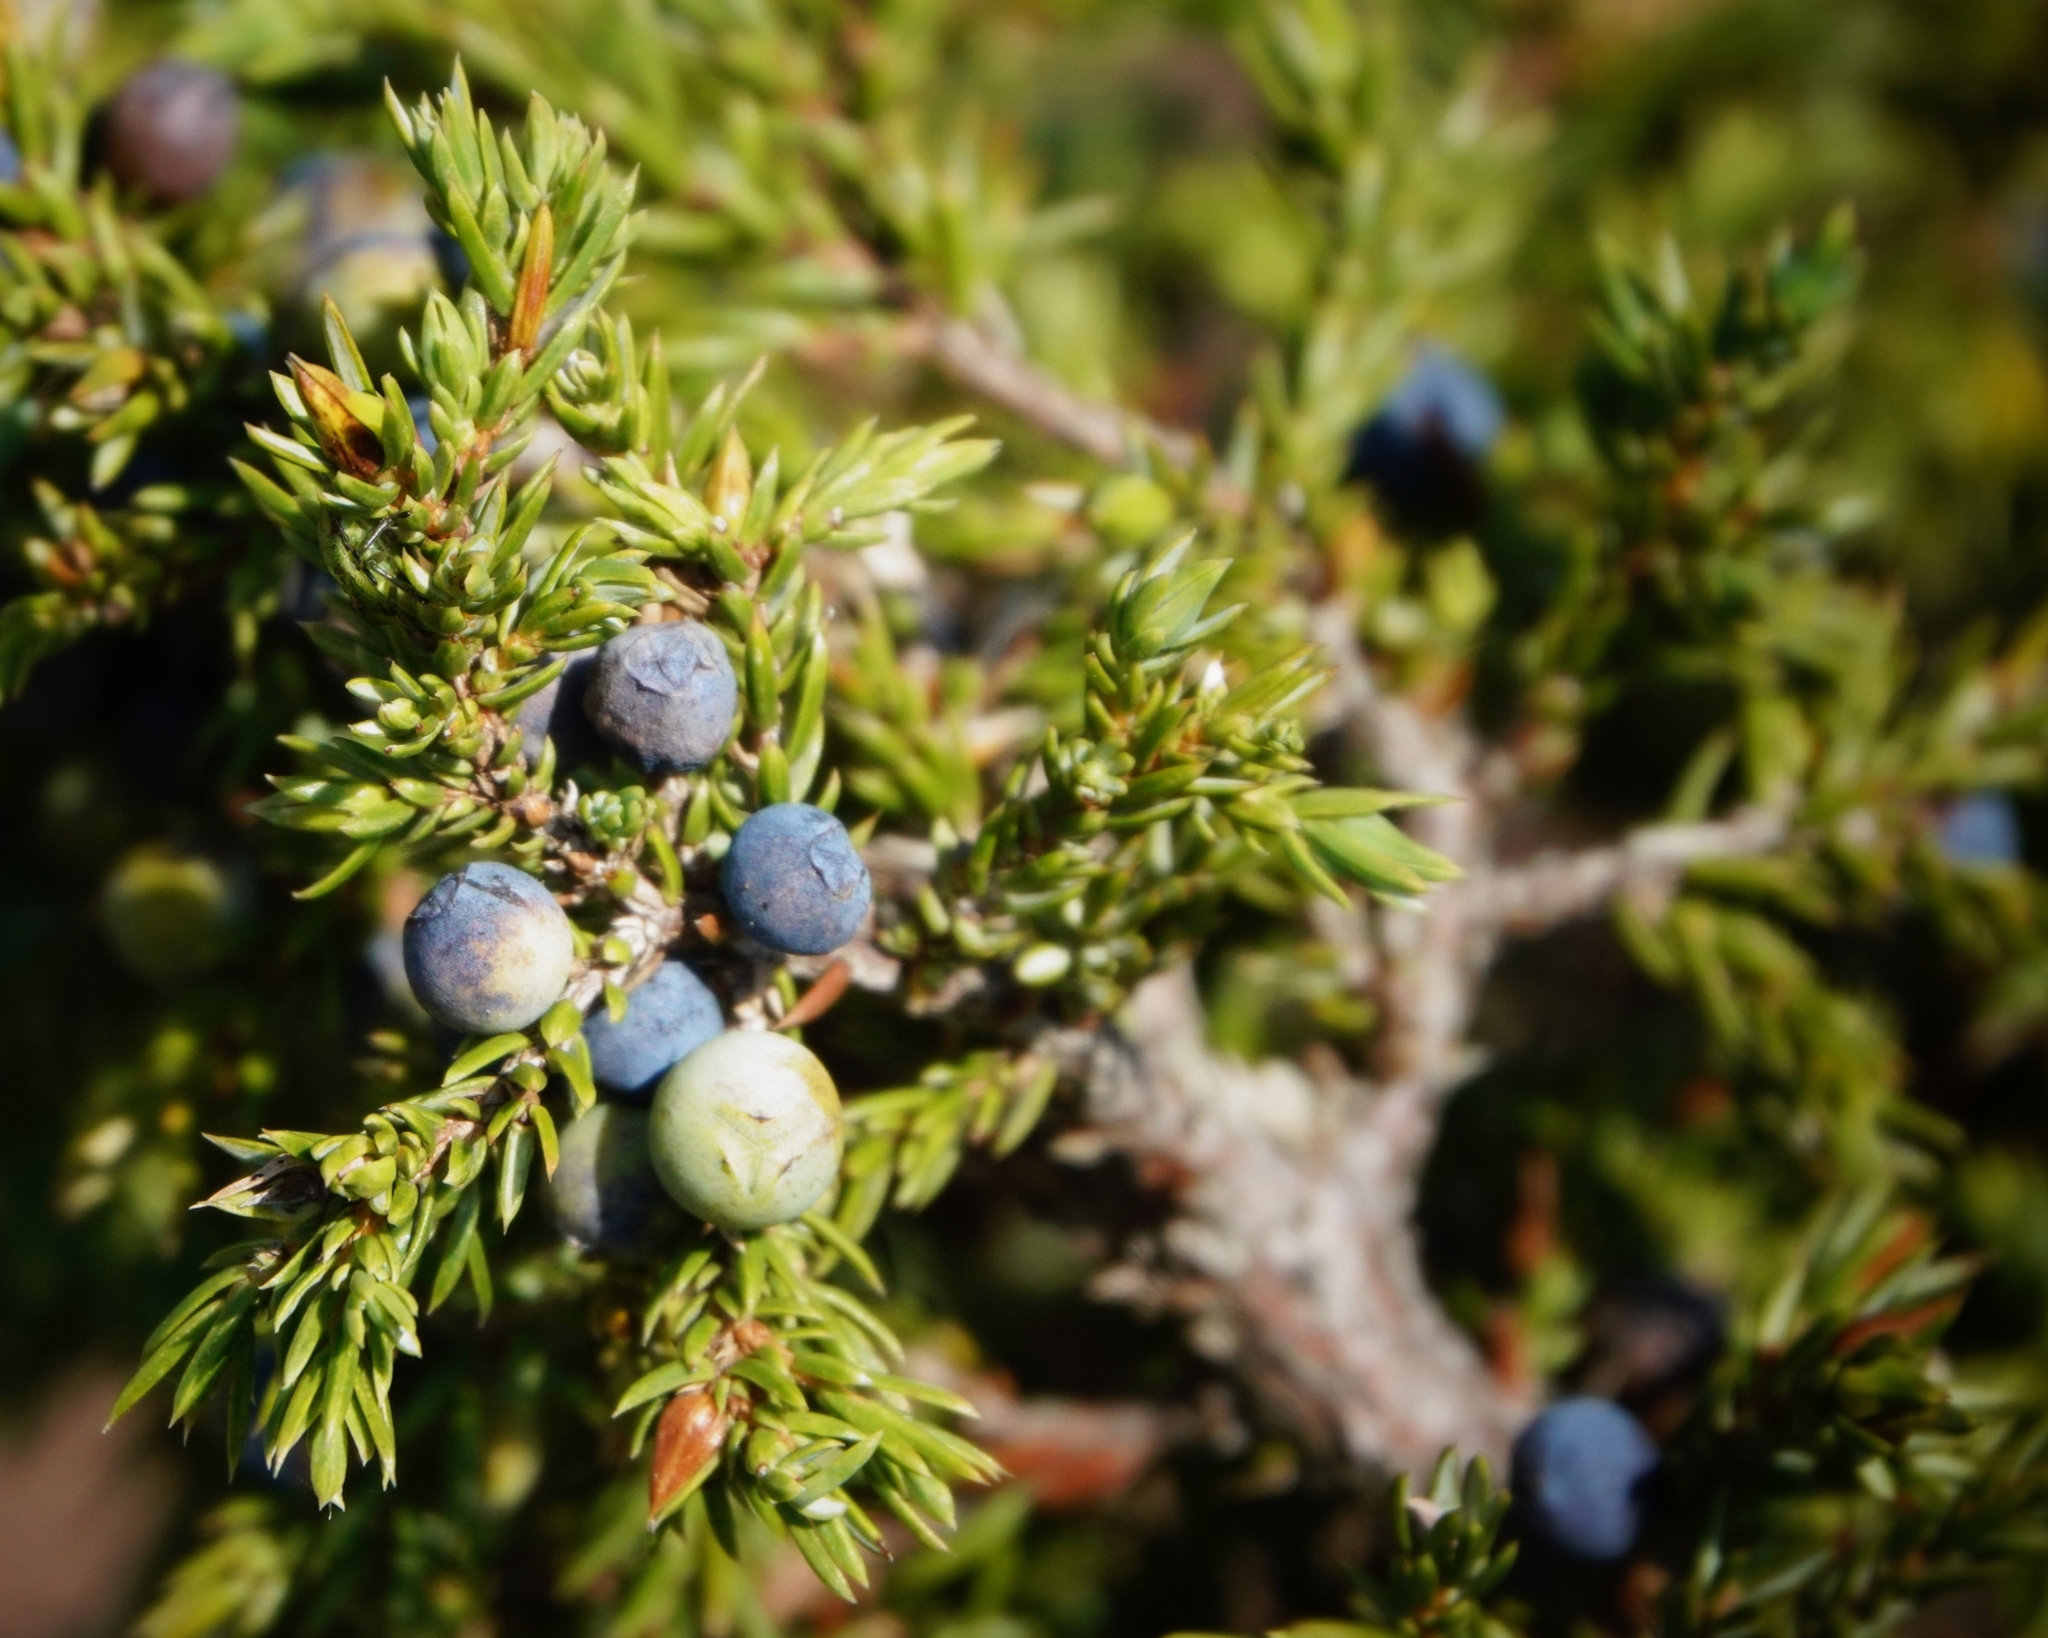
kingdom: Plantae
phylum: Tracheophyta
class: Pinopsida
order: Pinales
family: Cupressaceae
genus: Juniperus
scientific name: Juniperus communis
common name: Common juniper
